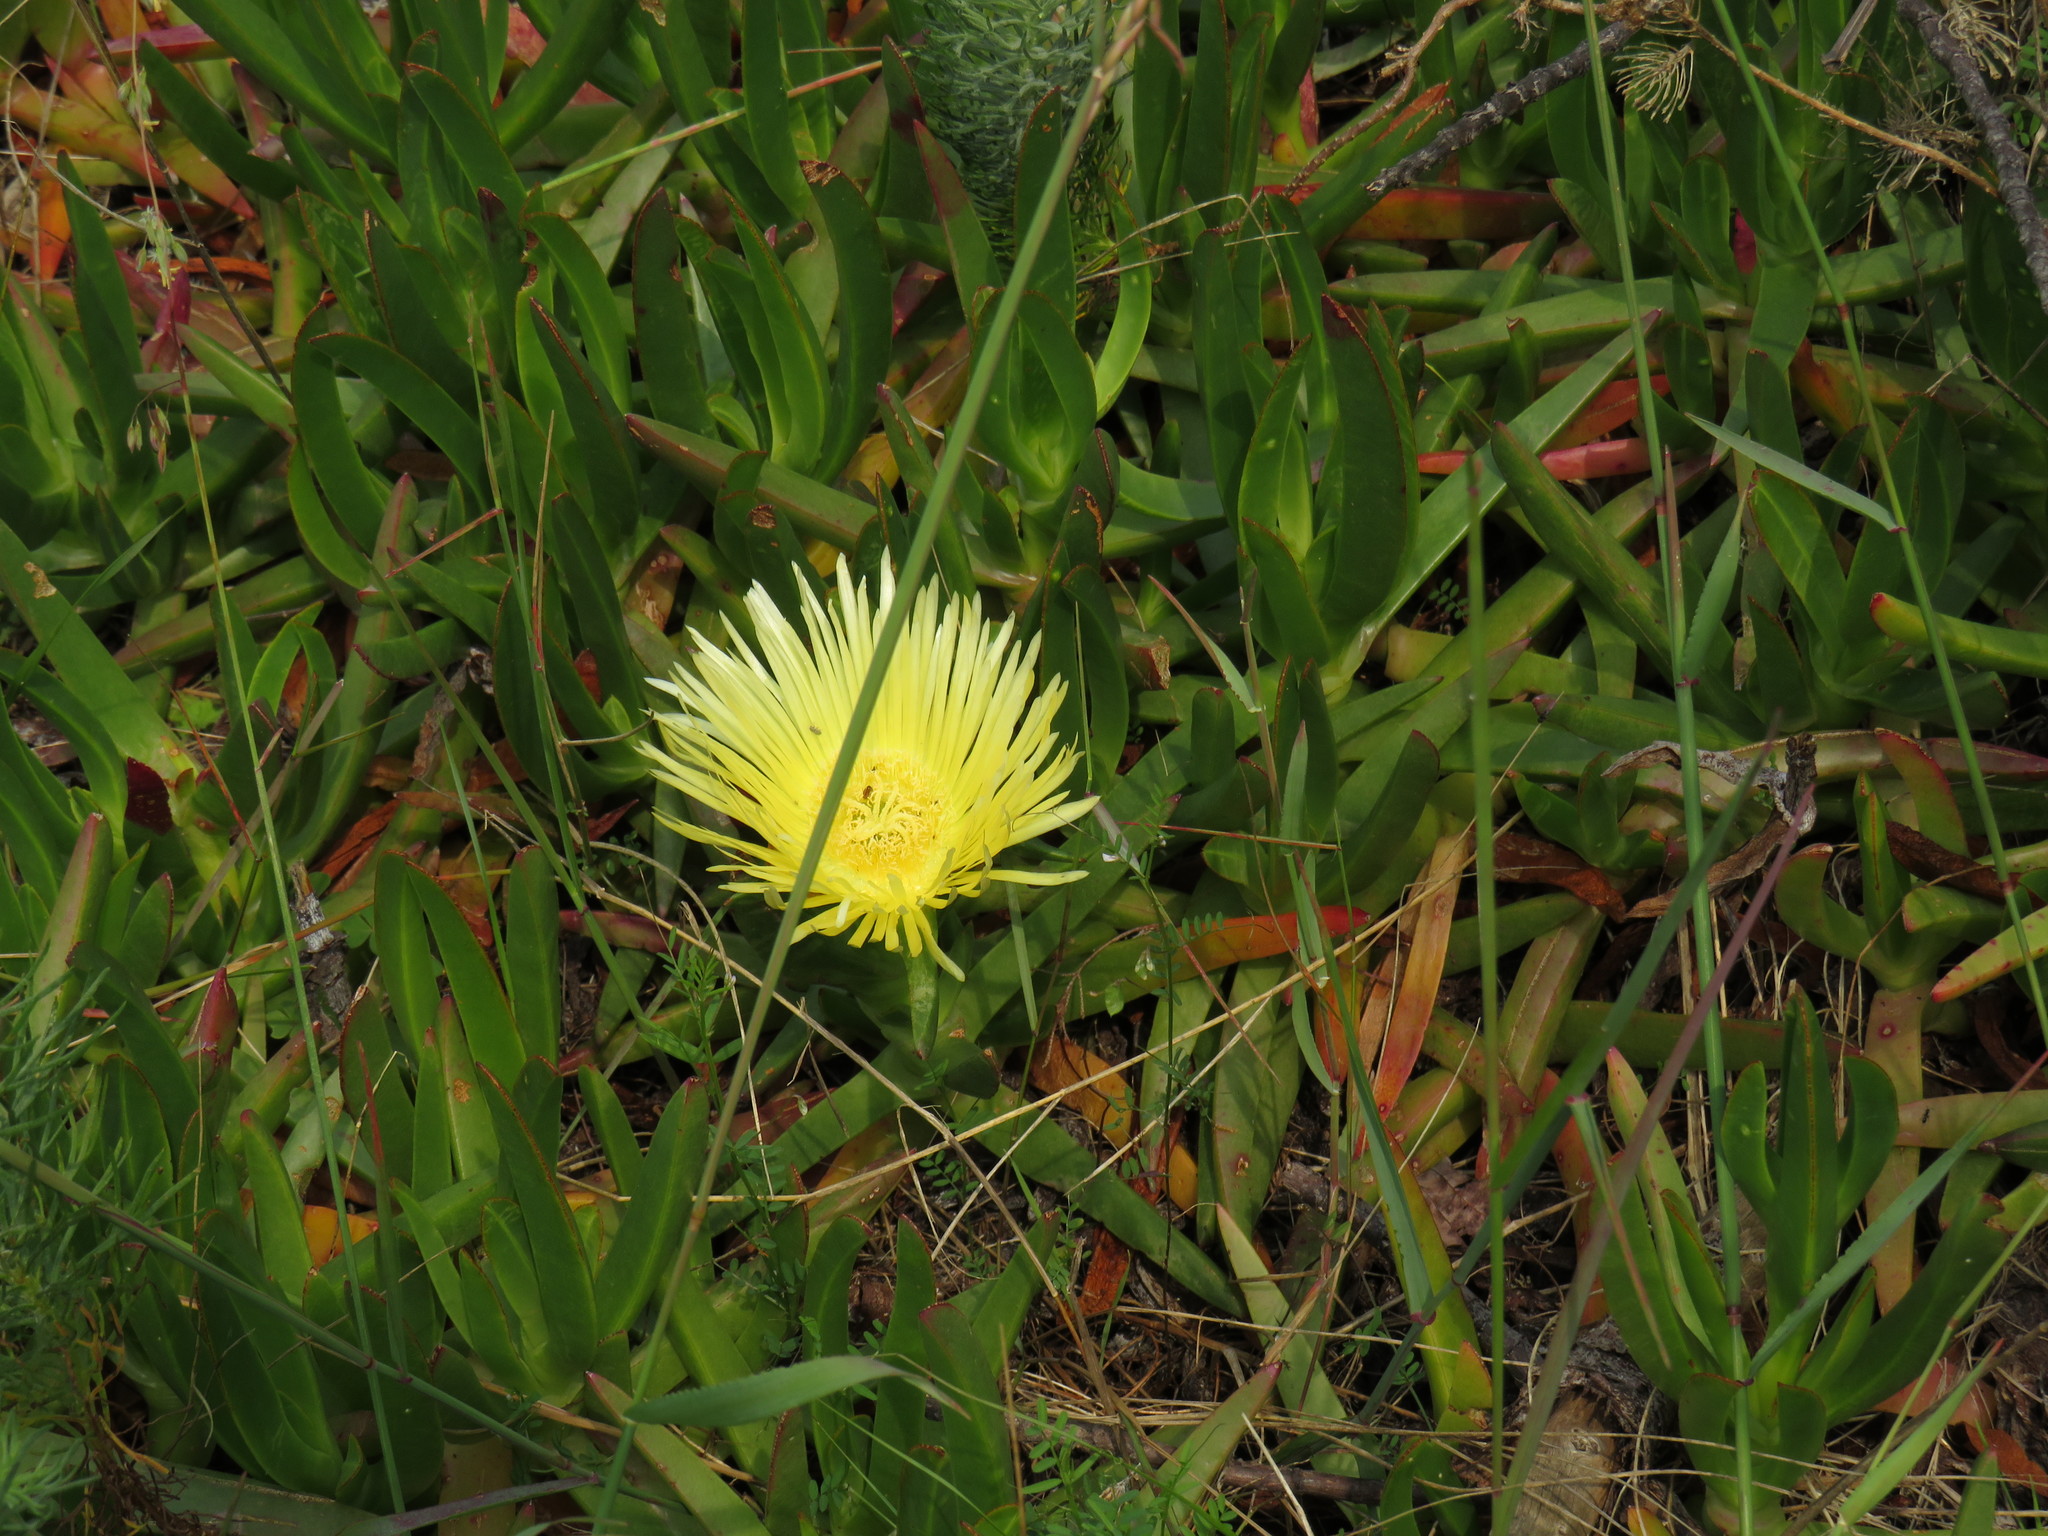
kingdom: Plantae
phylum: Tracheophyta
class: Magnoliopsida
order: Caryophyllales
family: Aizoaceae
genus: Carpobrotus
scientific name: Carpobrotus edulis
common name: Hottentot-fig
